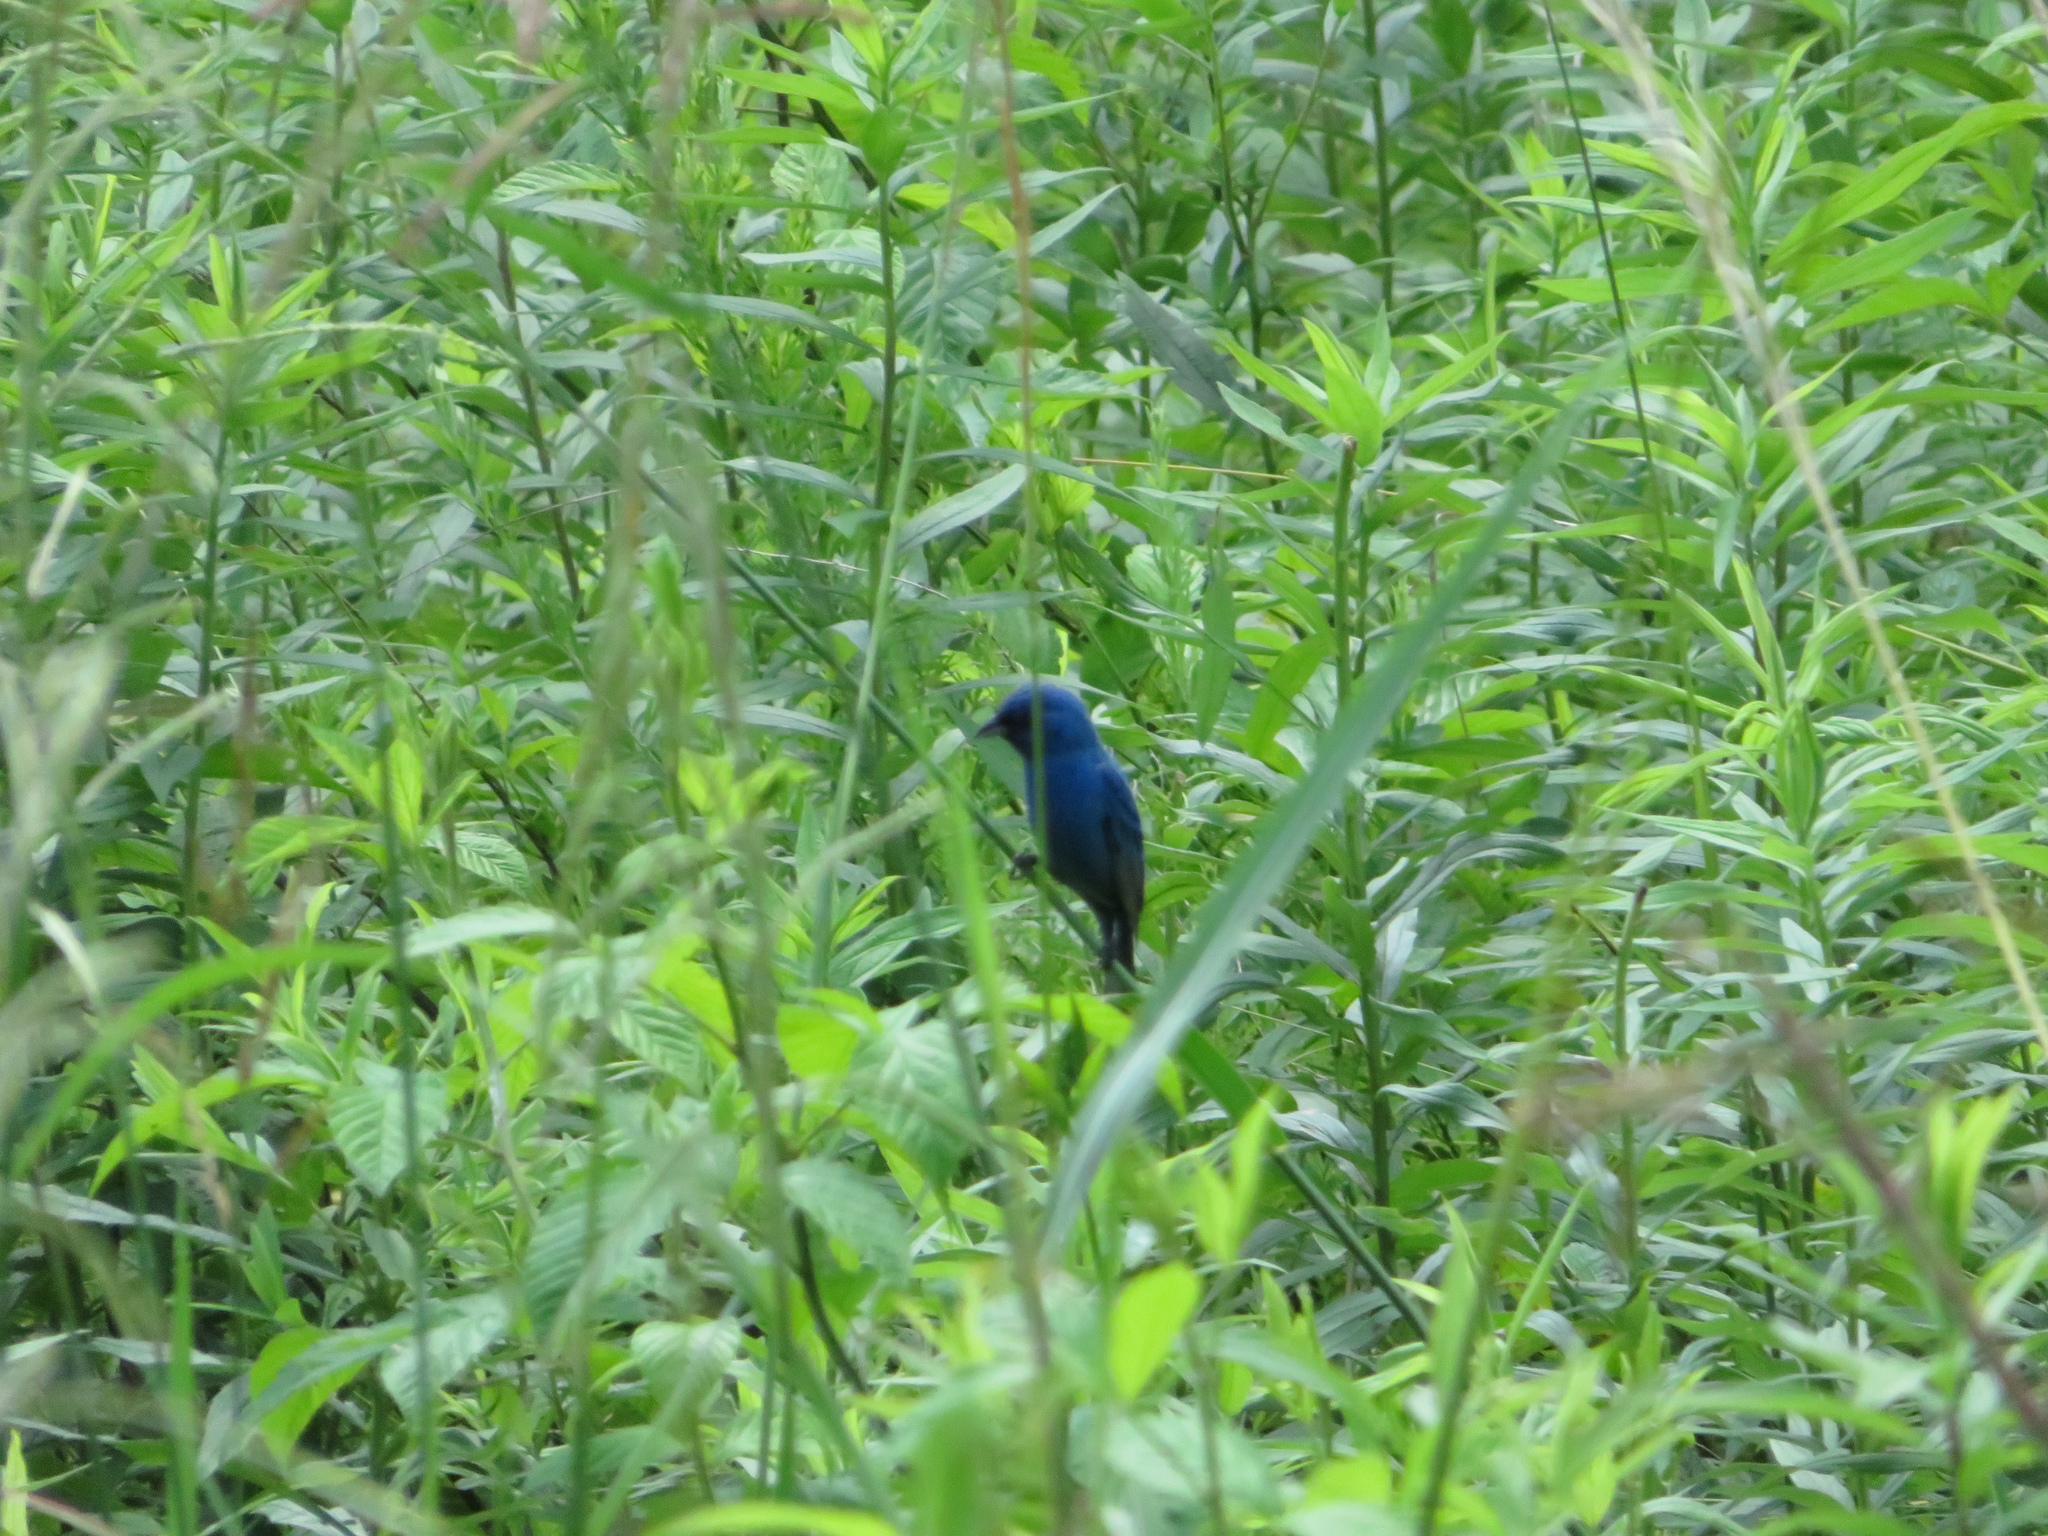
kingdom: Animalia
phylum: Chordata
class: Aves
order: Passeriformes
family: Cardinalidae
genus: Passerina
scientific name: Passerina cyanea
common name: Indigo bunting
